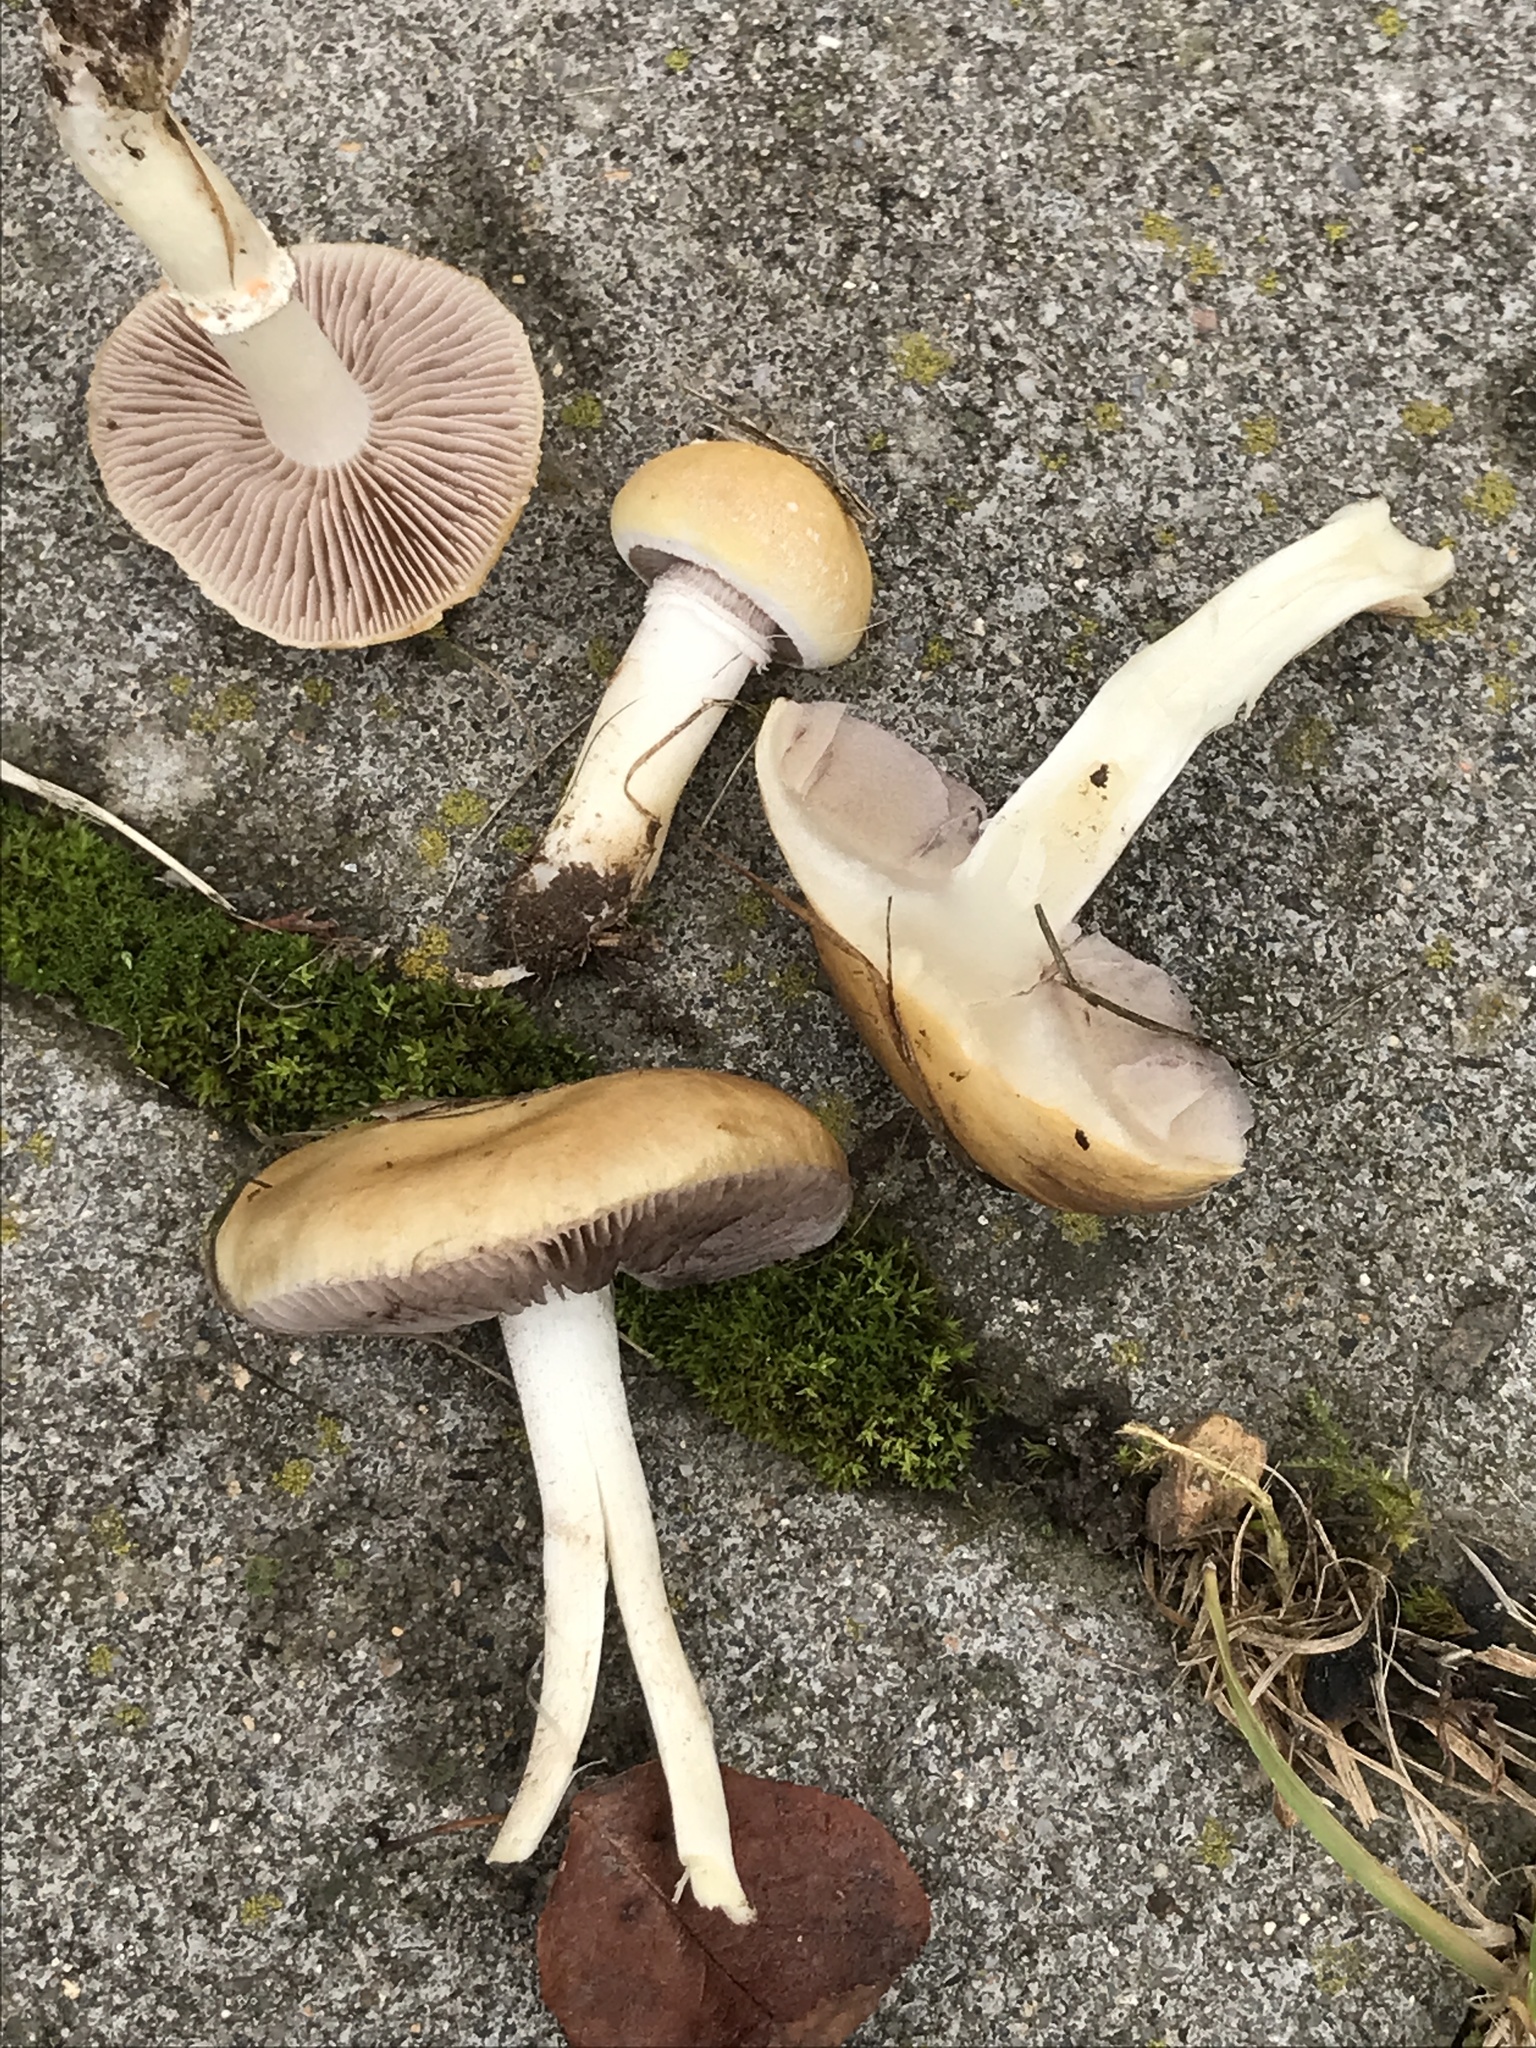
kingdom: Fungi
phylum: Basidiomycota
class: Agaricomycetes
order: Agaricales
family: Hymenogastraceae
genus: Psilocybe
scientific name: Psilocybe coronilla
